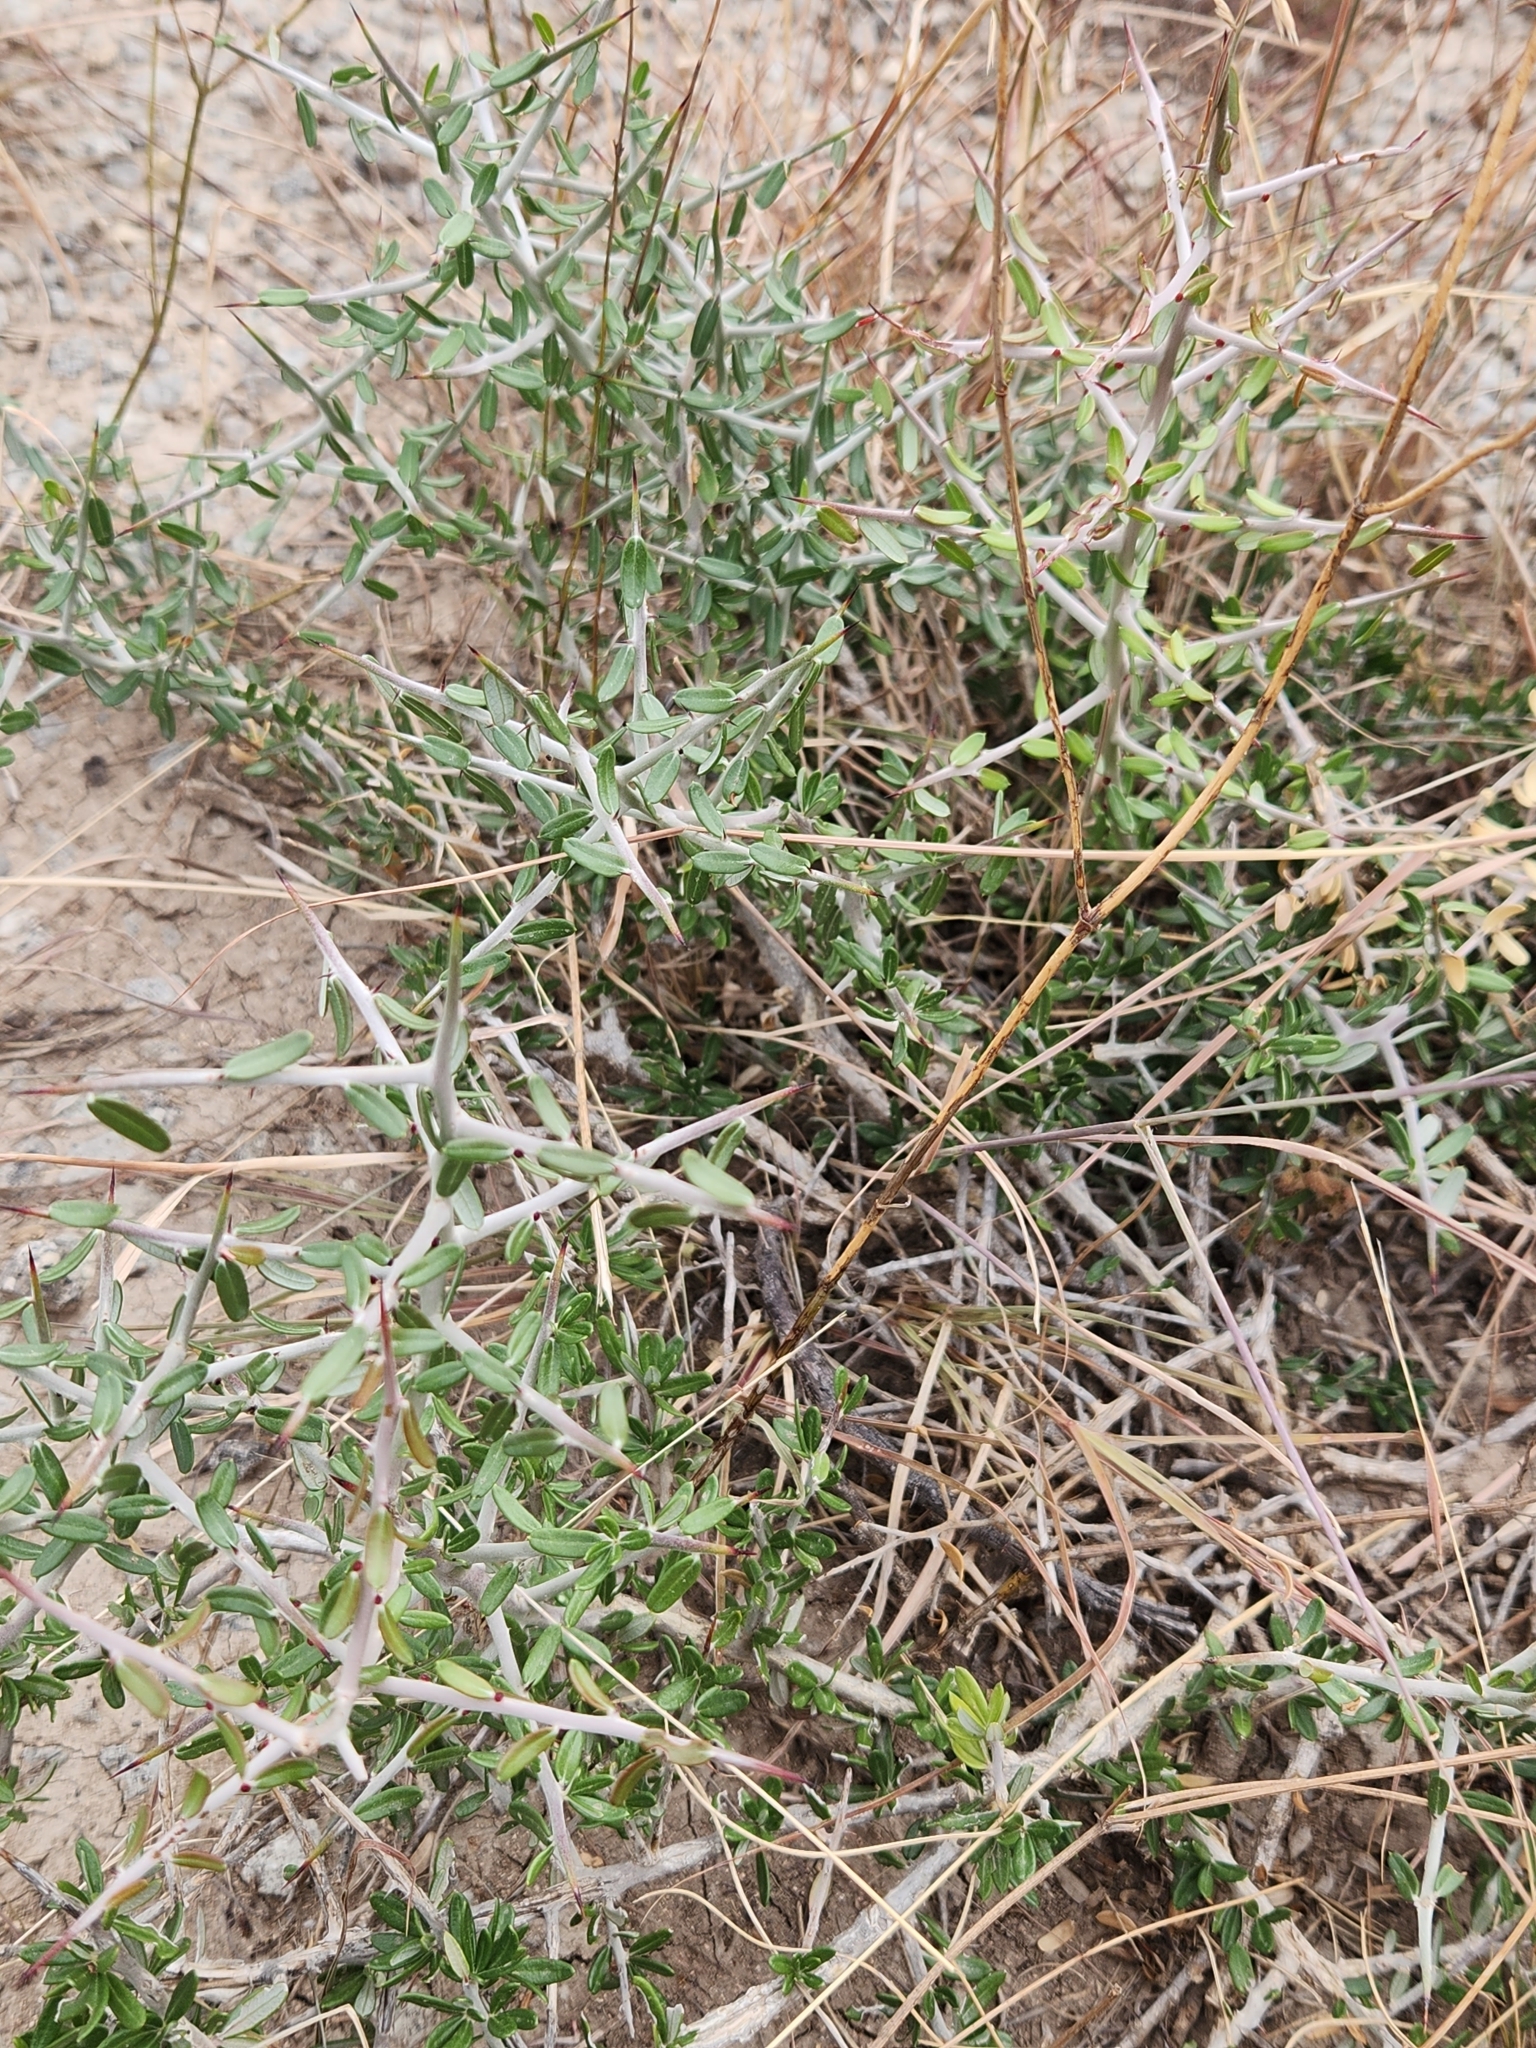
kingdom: Plantae
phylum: Tracheophyta
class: Magnoliopsida
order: Sapindales
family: Simaroubaceae
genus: Castela
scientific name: Castela erecta
